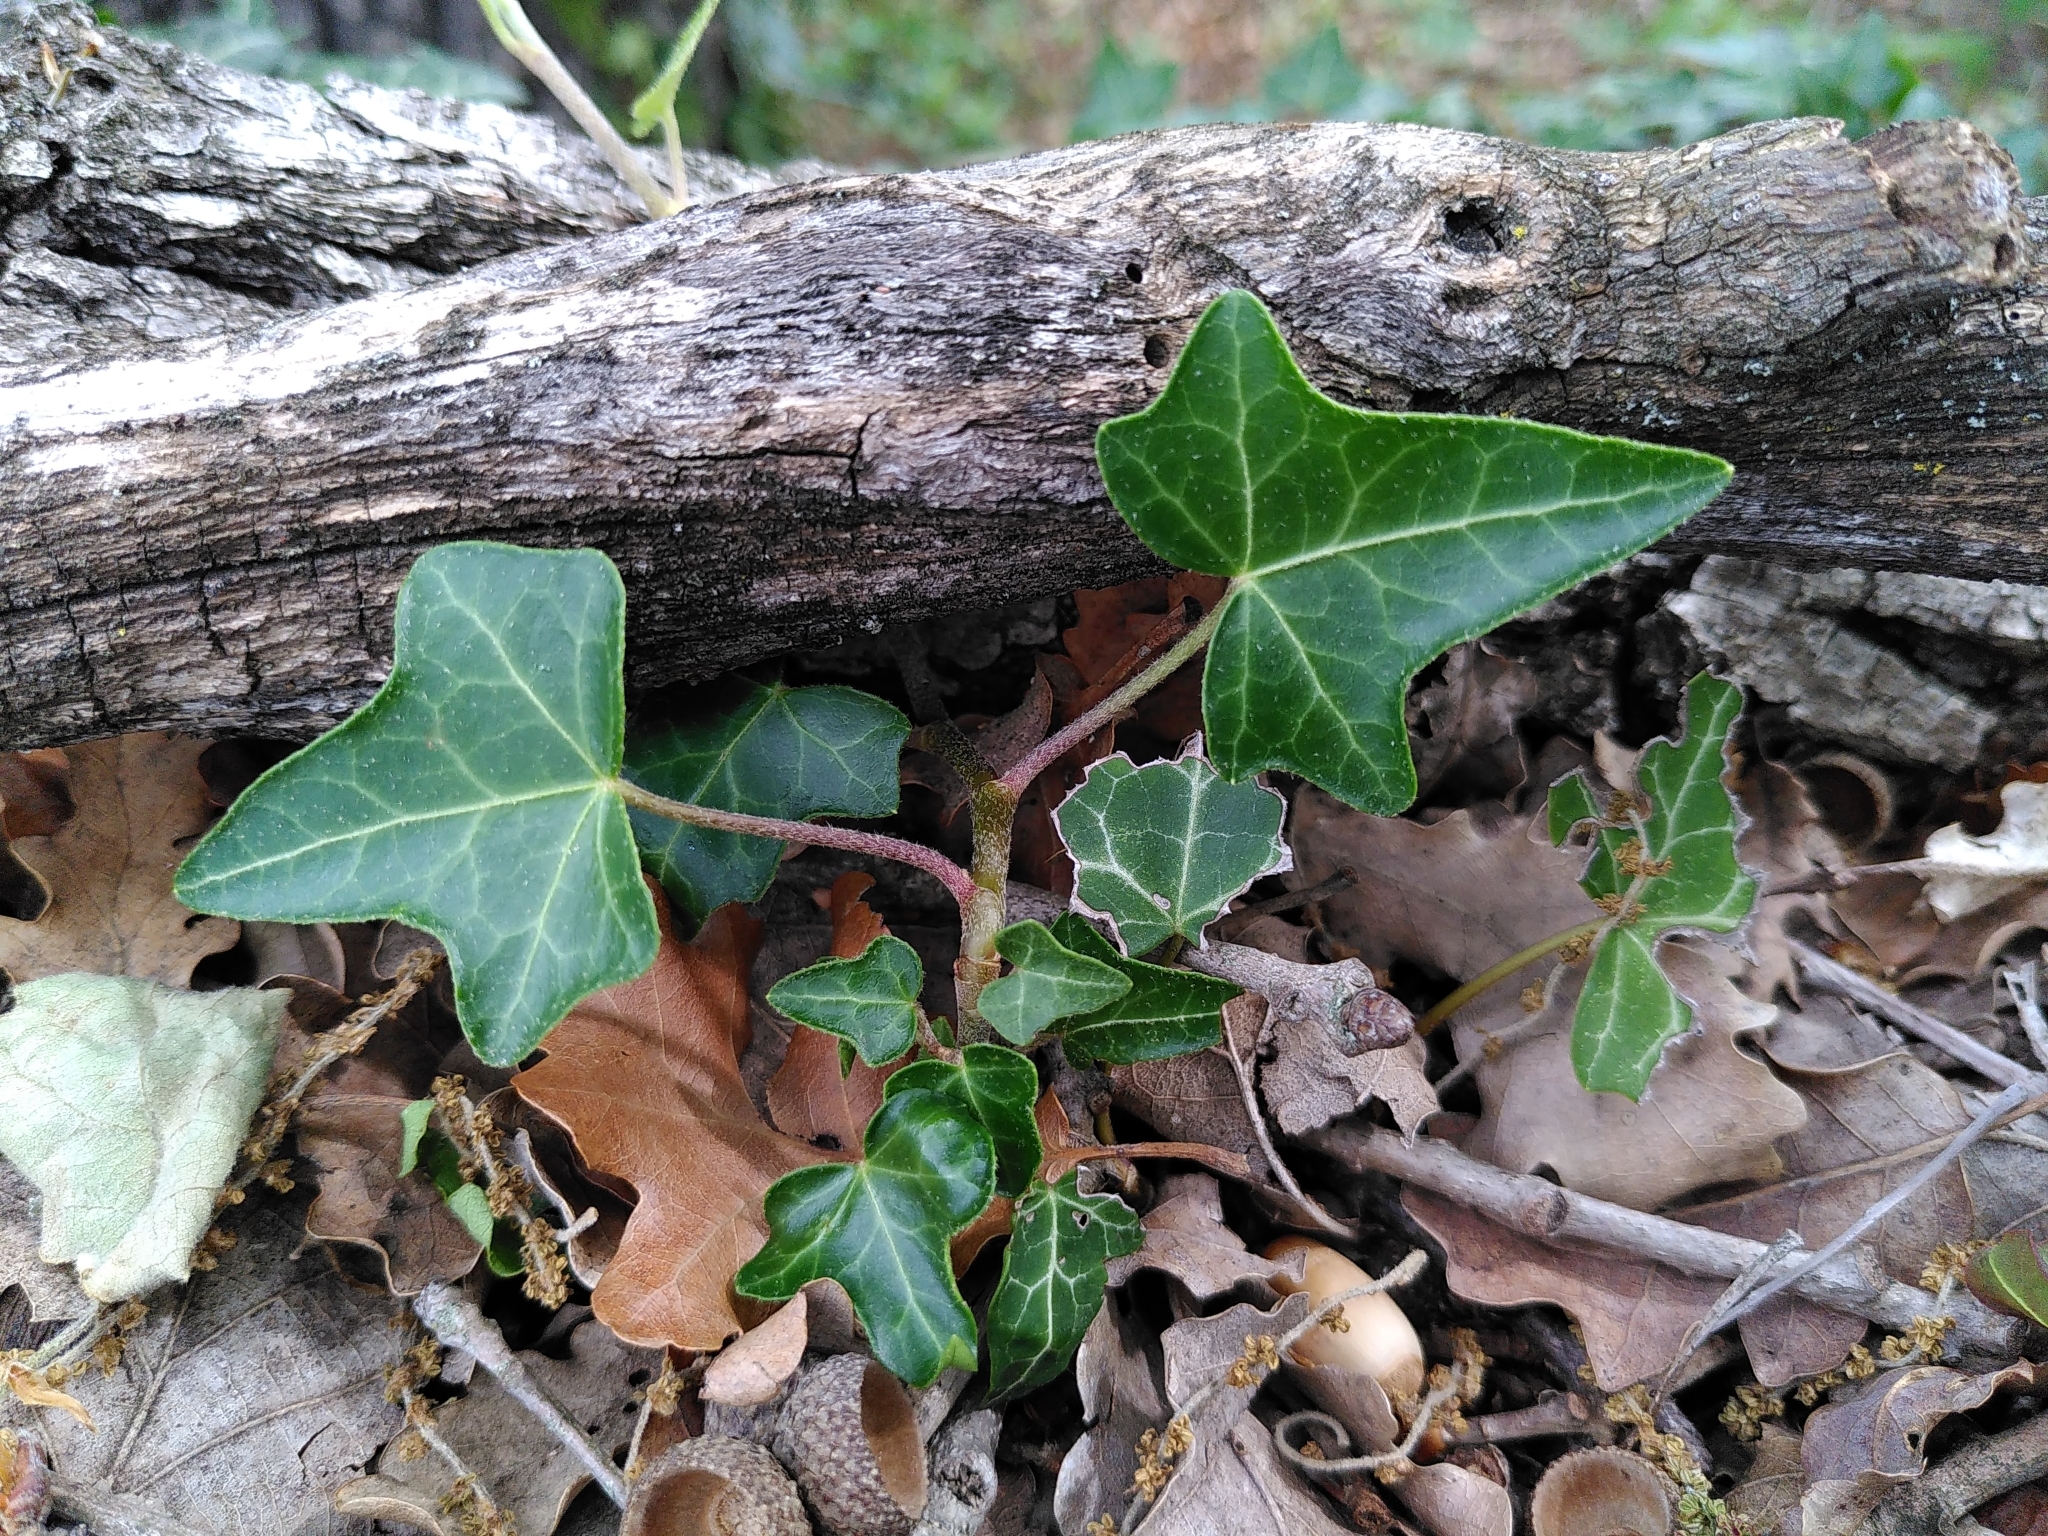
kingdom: Plantae
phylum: Tracheophyta
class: Magnoliopsida
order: Apiales
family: Araliaceae
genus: Hedera
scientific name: Hedera helix
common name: Ivy
